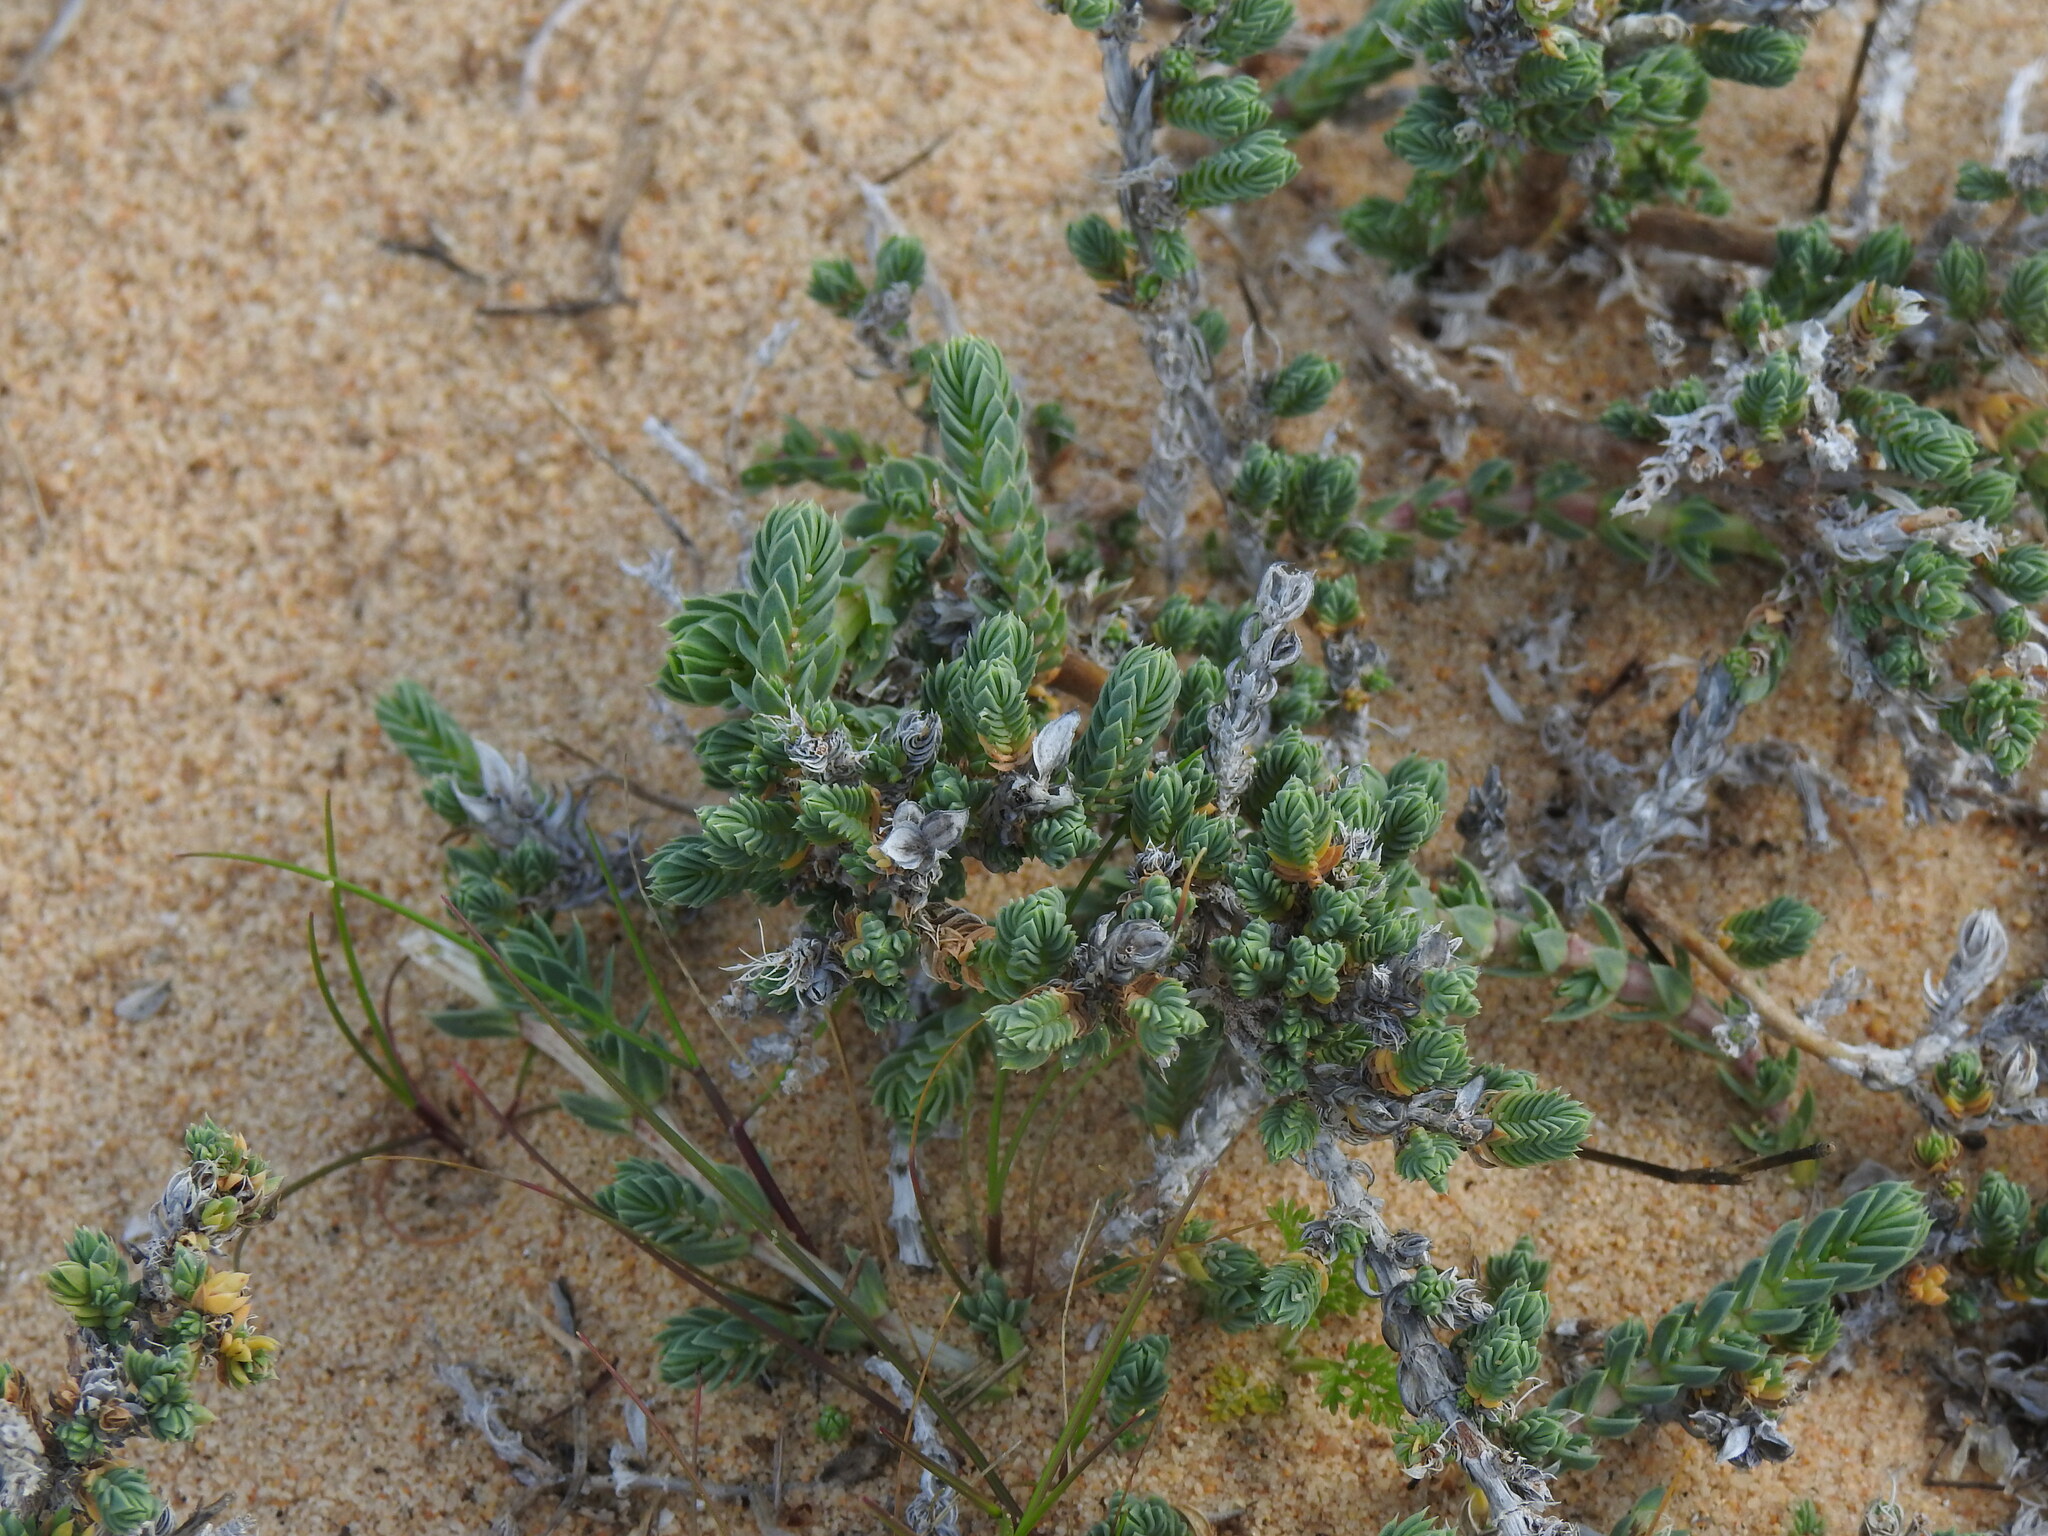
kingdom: Plantae
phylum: Tracheophyta
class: Magnoliopsida
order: Gentianales
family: Rubiaceae
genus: Crucianella
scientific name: Crucianella maritima
